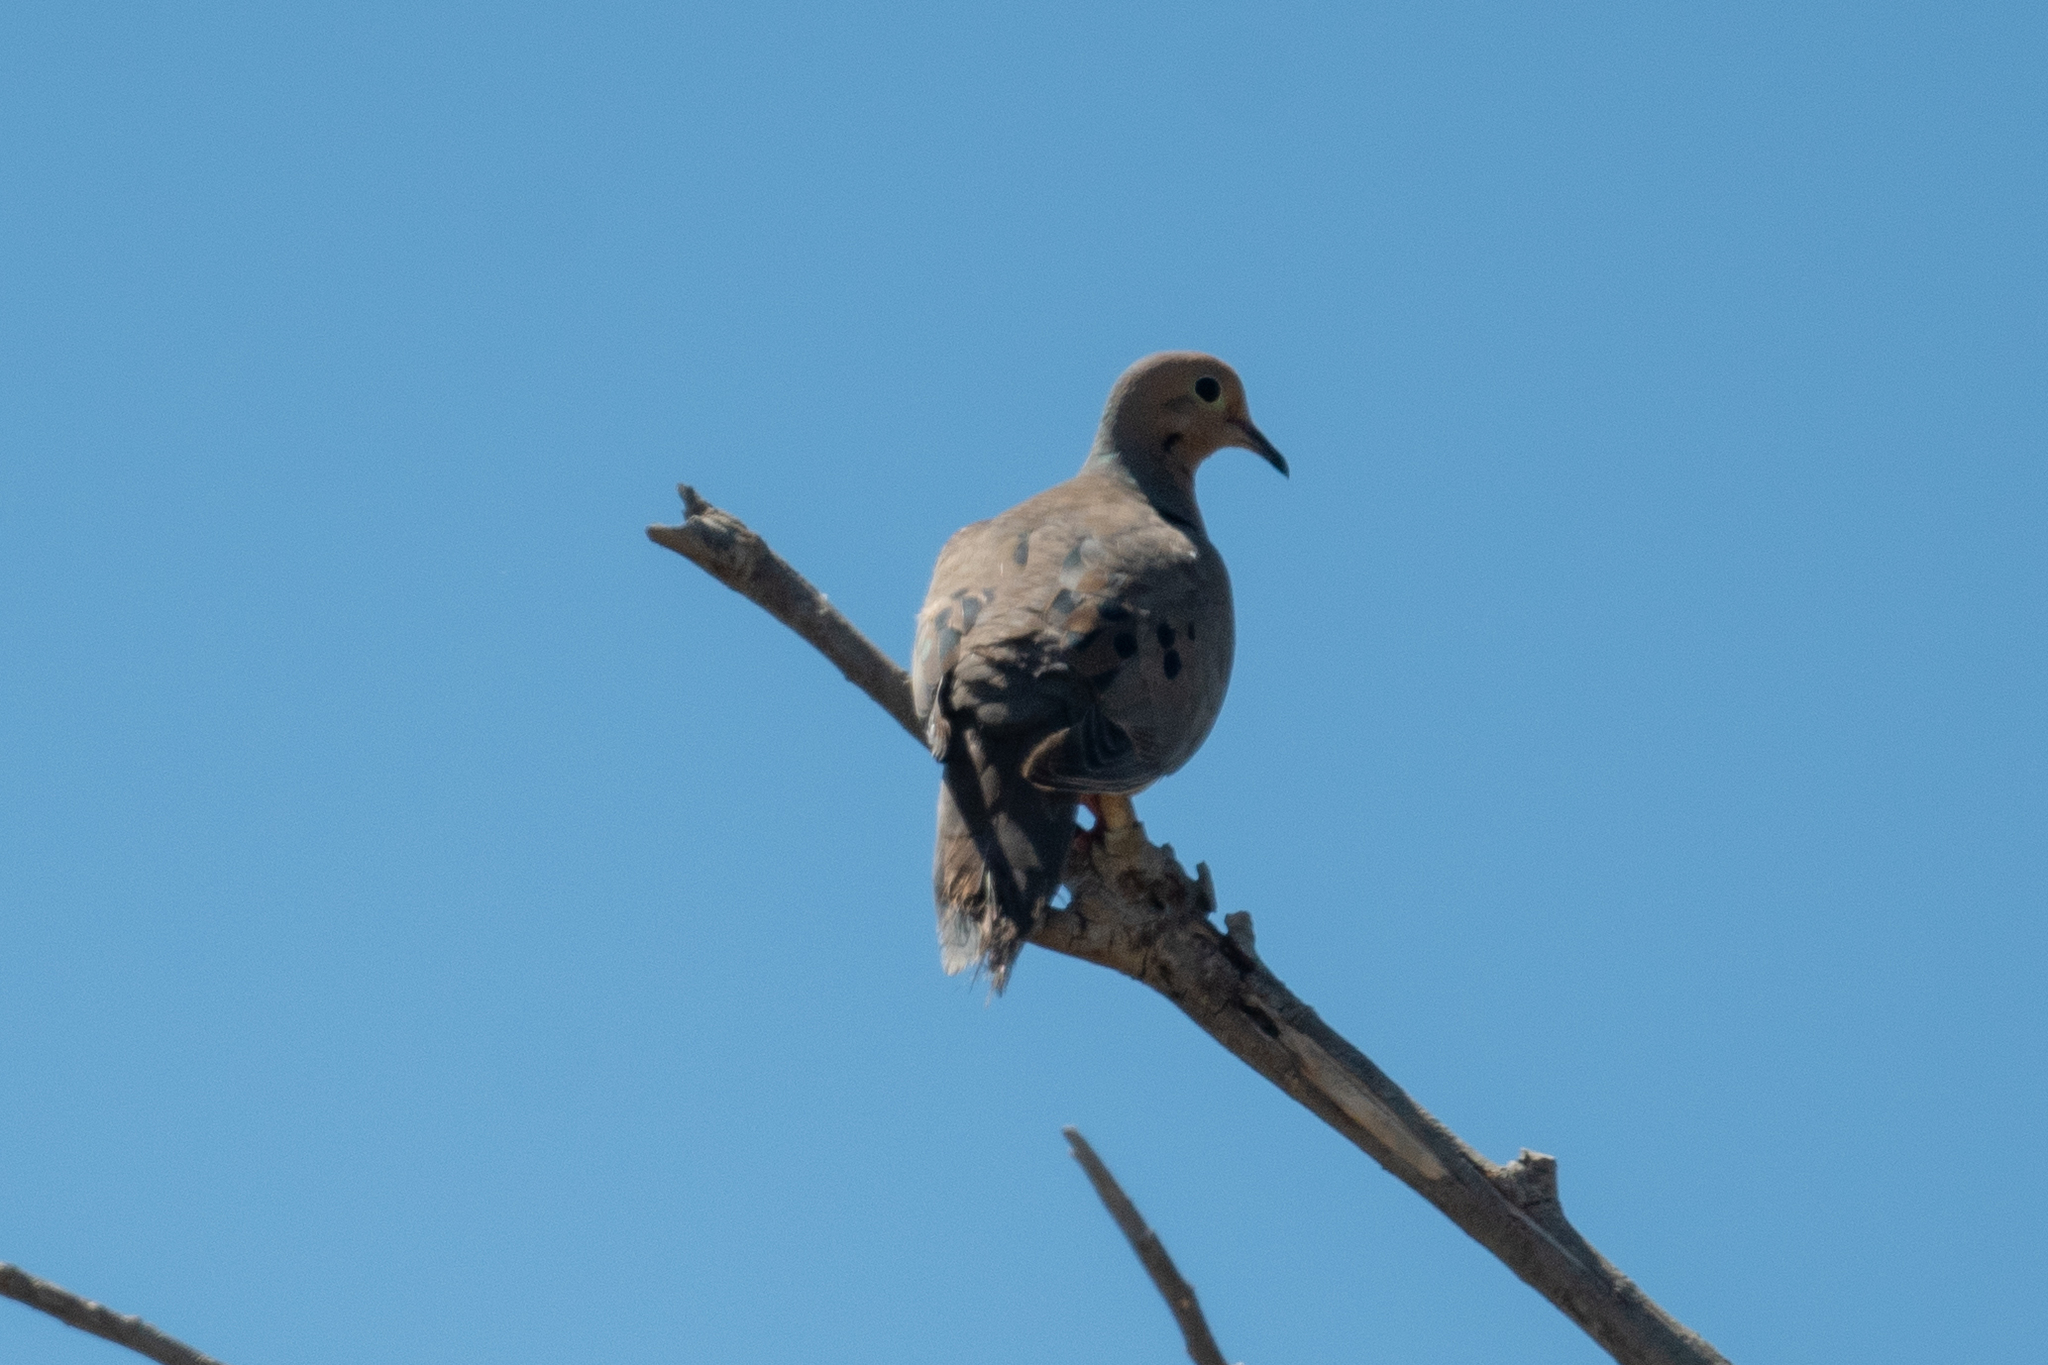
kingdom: Animalia
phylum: Chordata
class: Aves
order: Columbiformes
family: Columbidae
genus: Zenaida
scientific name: Zenaida macroura
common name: Mourning dove
